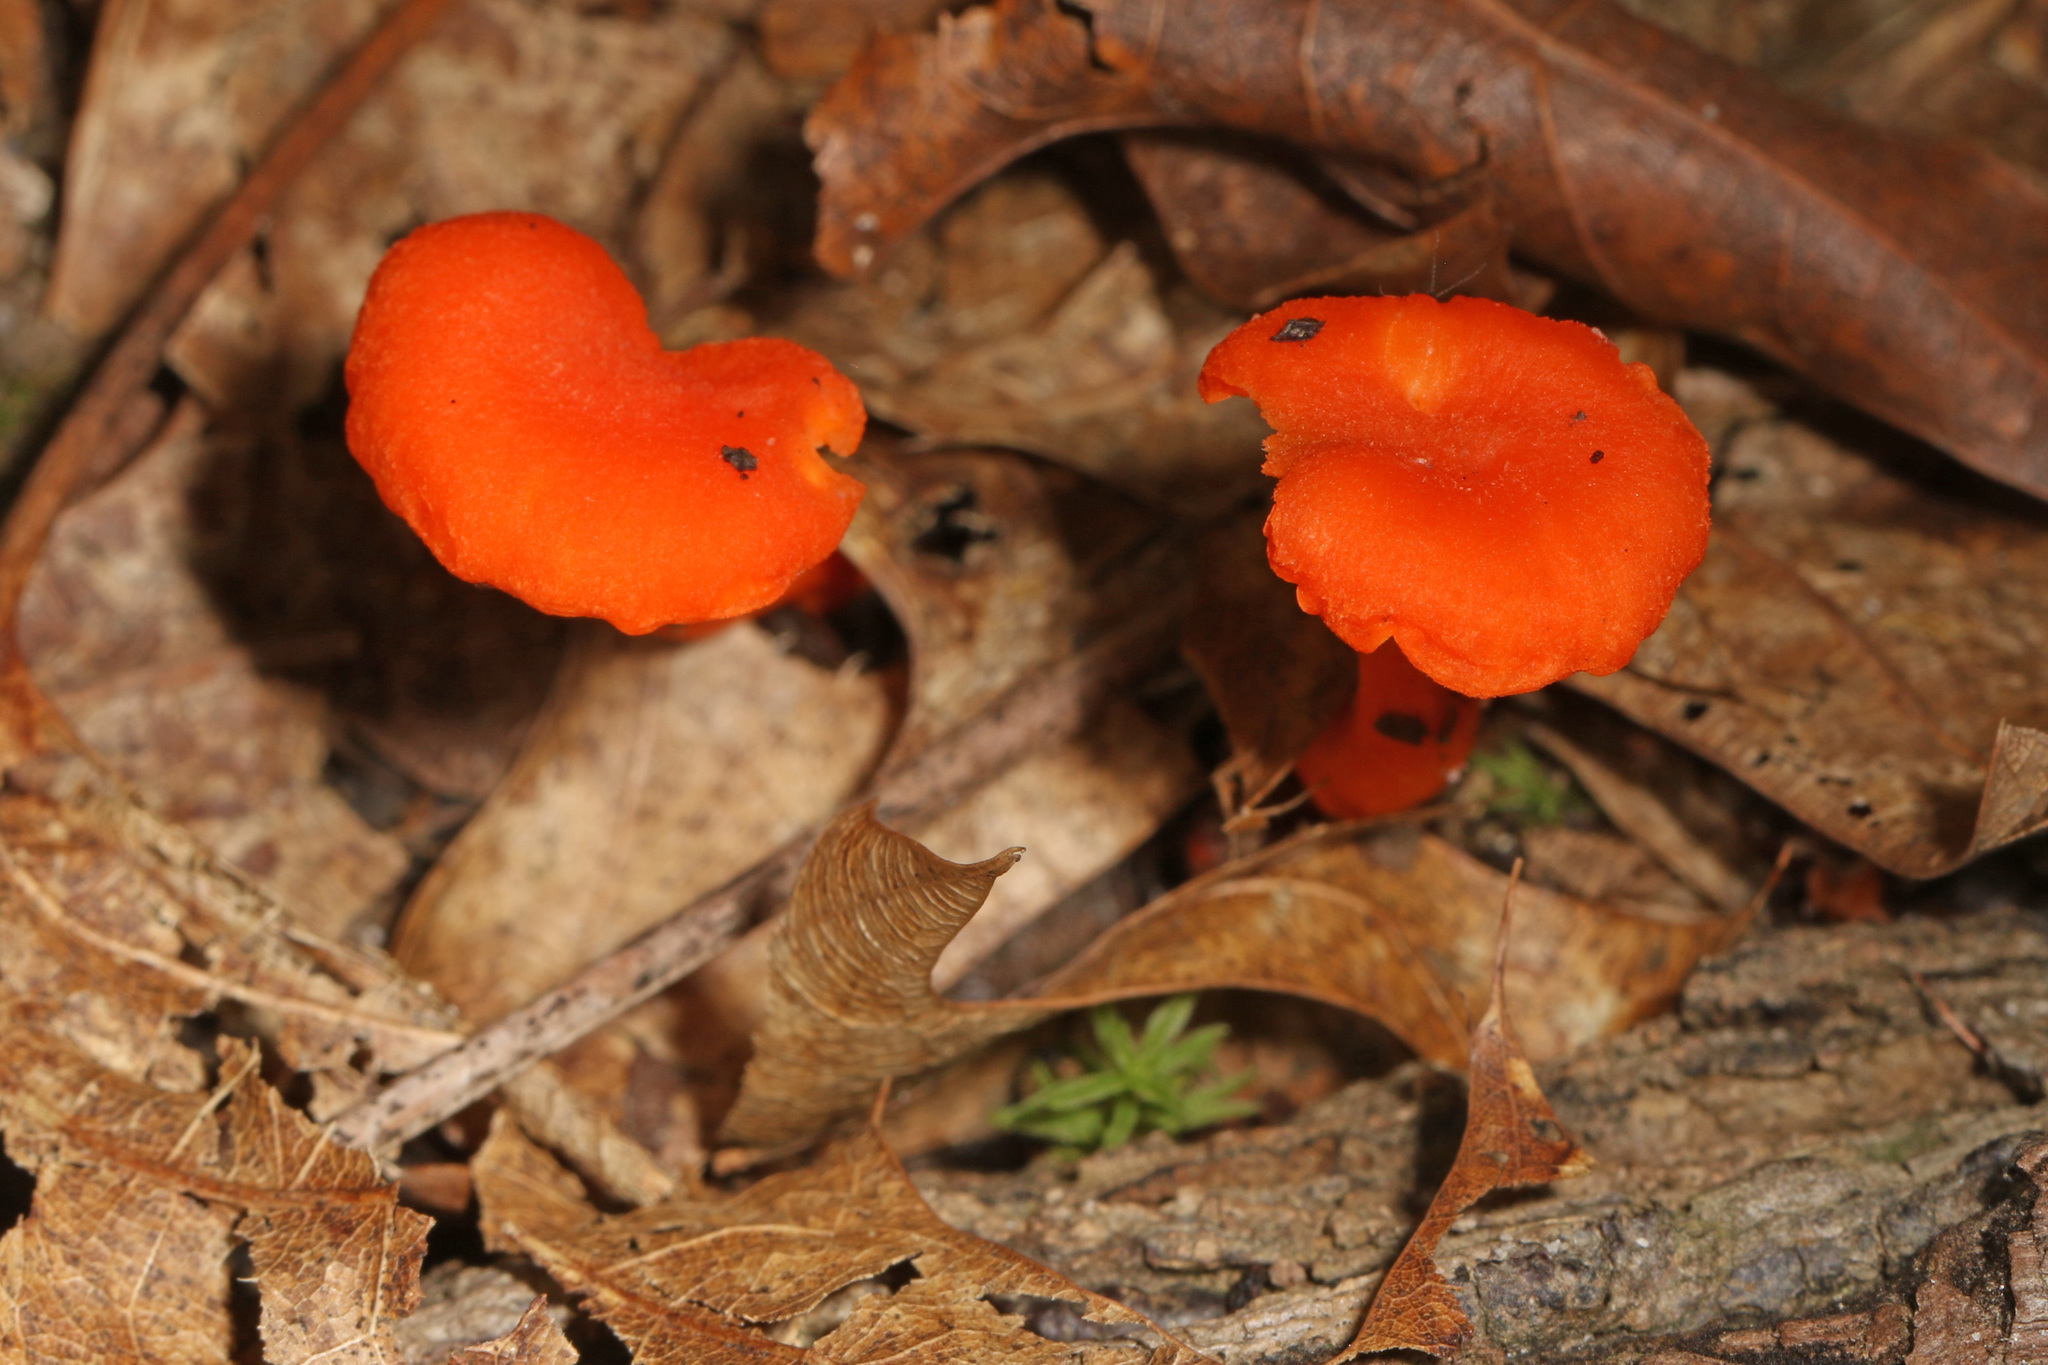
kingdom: Fungi
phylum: Basidiomycota
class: Agaricomycetes
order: Cantharellales
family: Hydnaceae
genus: Cantharellus
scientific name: Cantharellus cinnabarinus
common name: Cinnabar chanterelle
